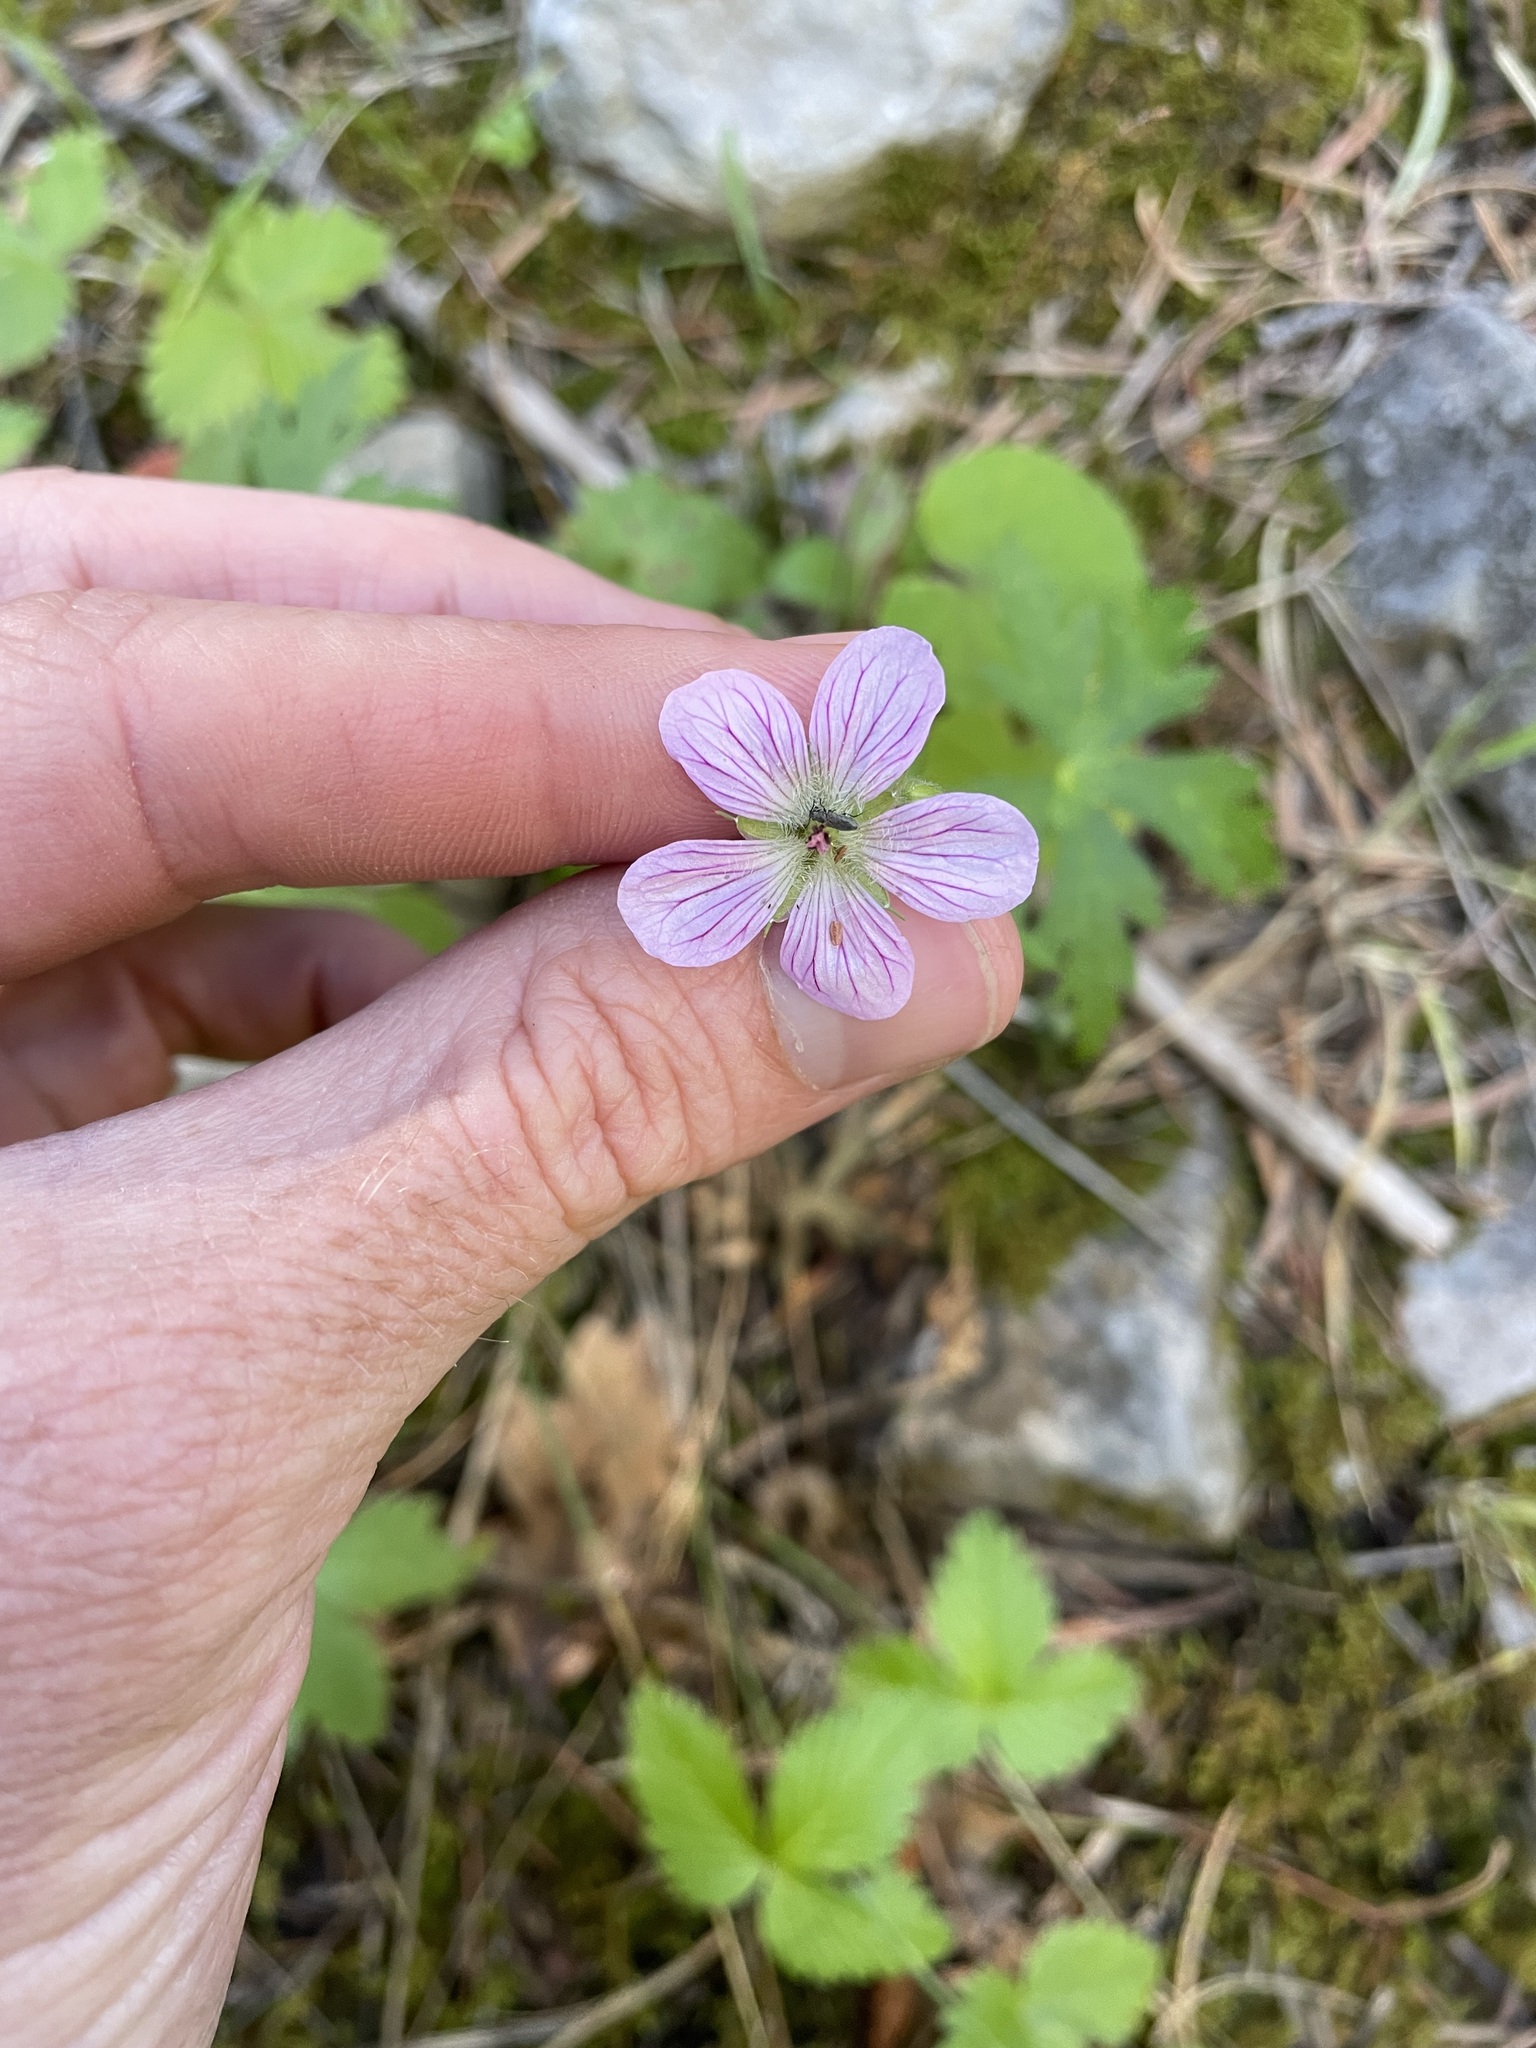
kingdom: Plantae
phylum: Tracheophyta
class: Magnoliopsida
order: Geraniales
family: Geraniaceae
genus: Geranium
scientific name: Geranium richardsonii
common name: Richardson's crane's-bill
